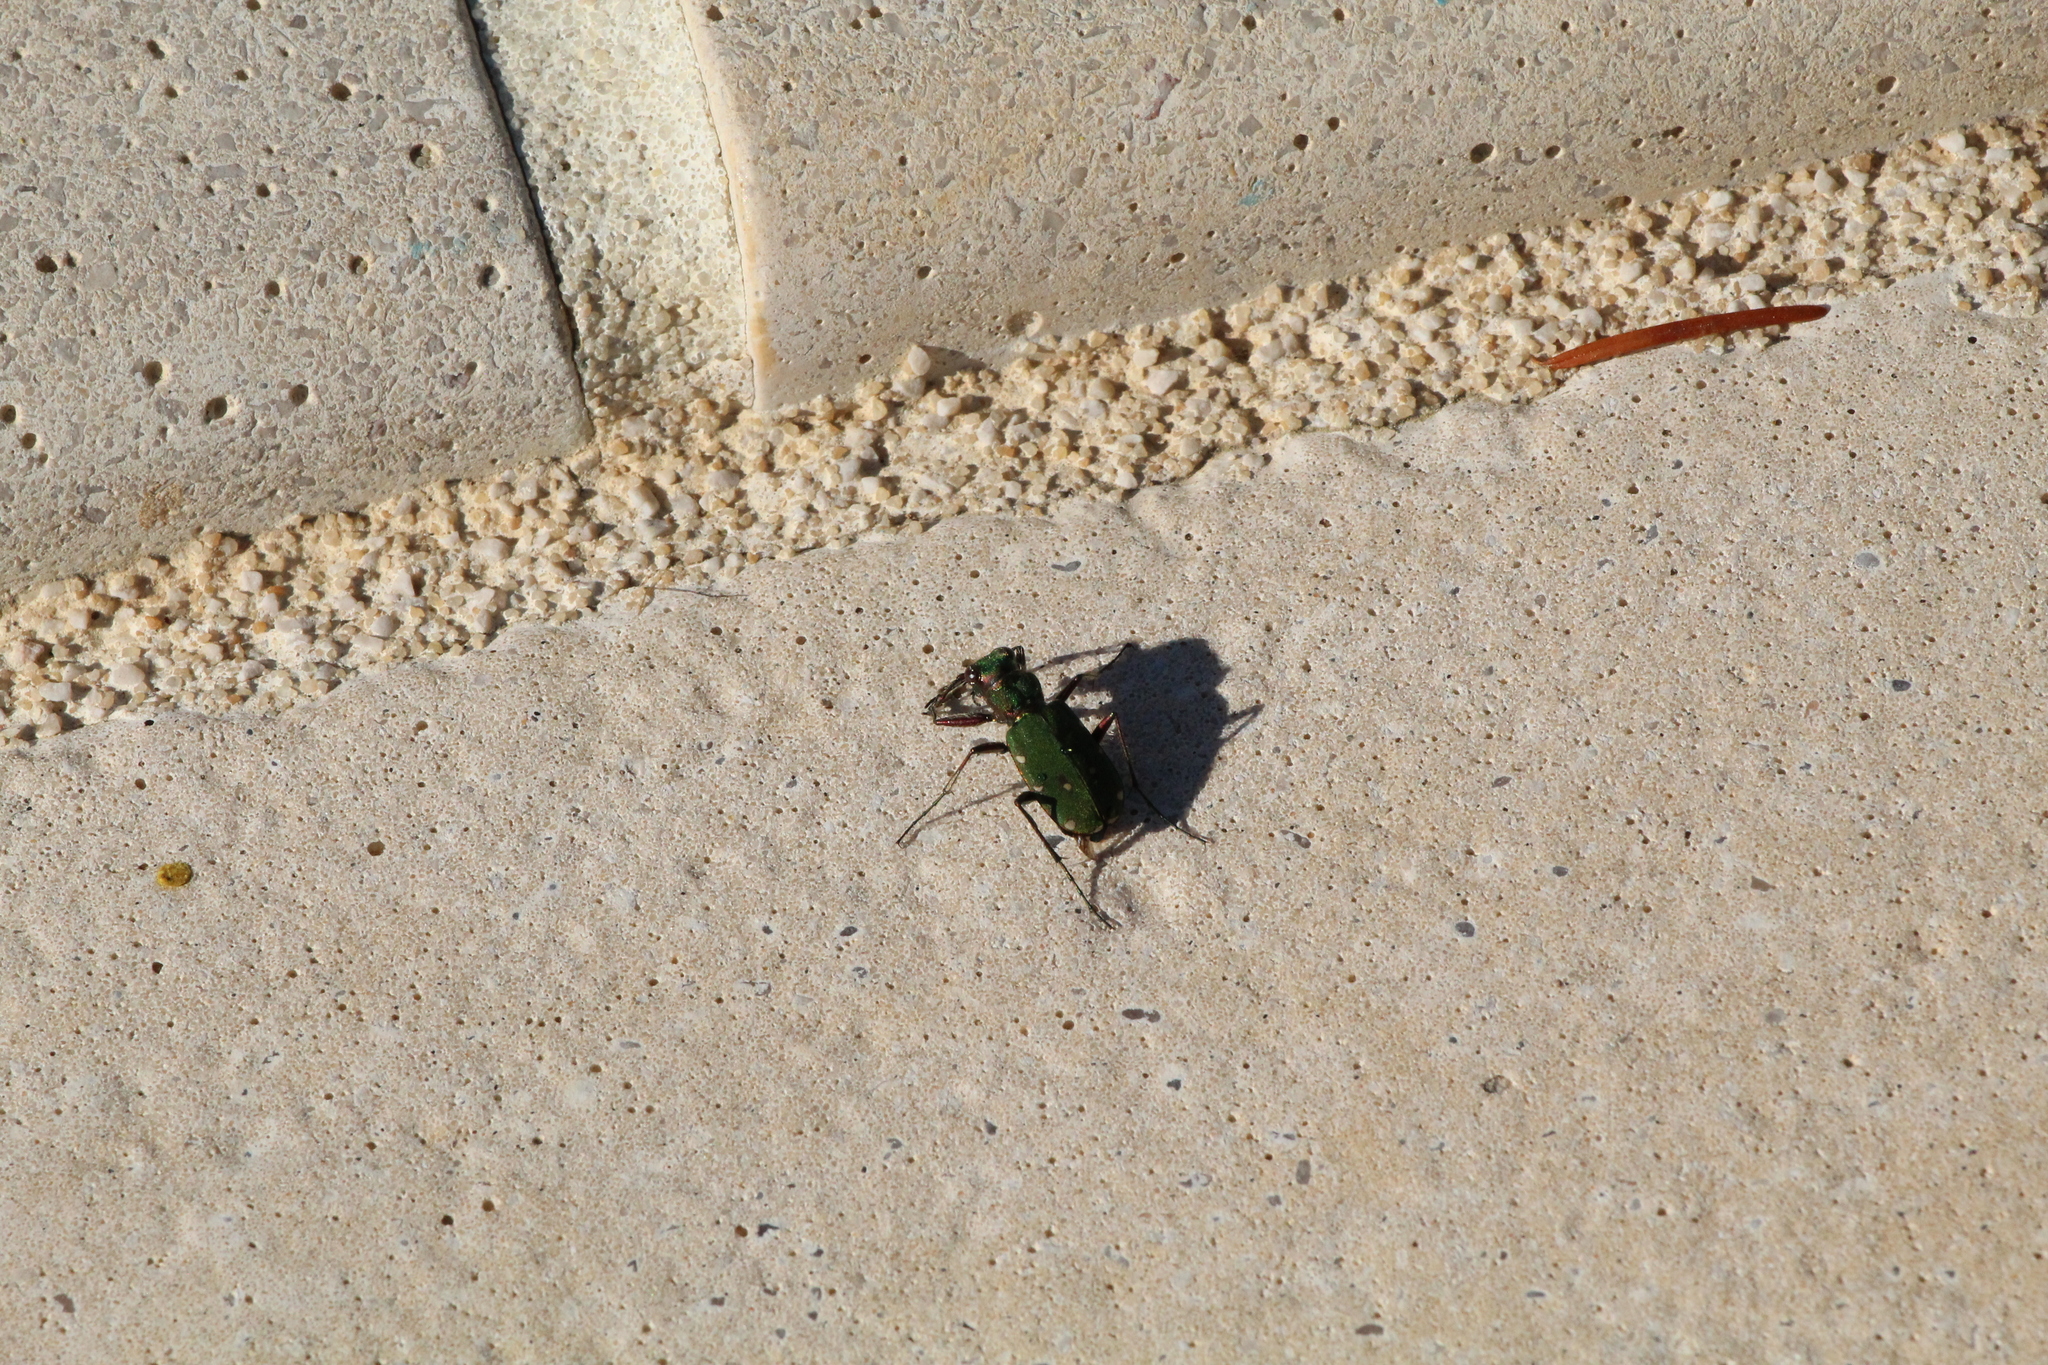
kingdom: Animalia
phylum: Arthropoda
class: Insecta
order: Coleoptera
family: Carabidae
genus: Cicindela
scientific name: Cicindela campestris
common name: Common tiger beetle
